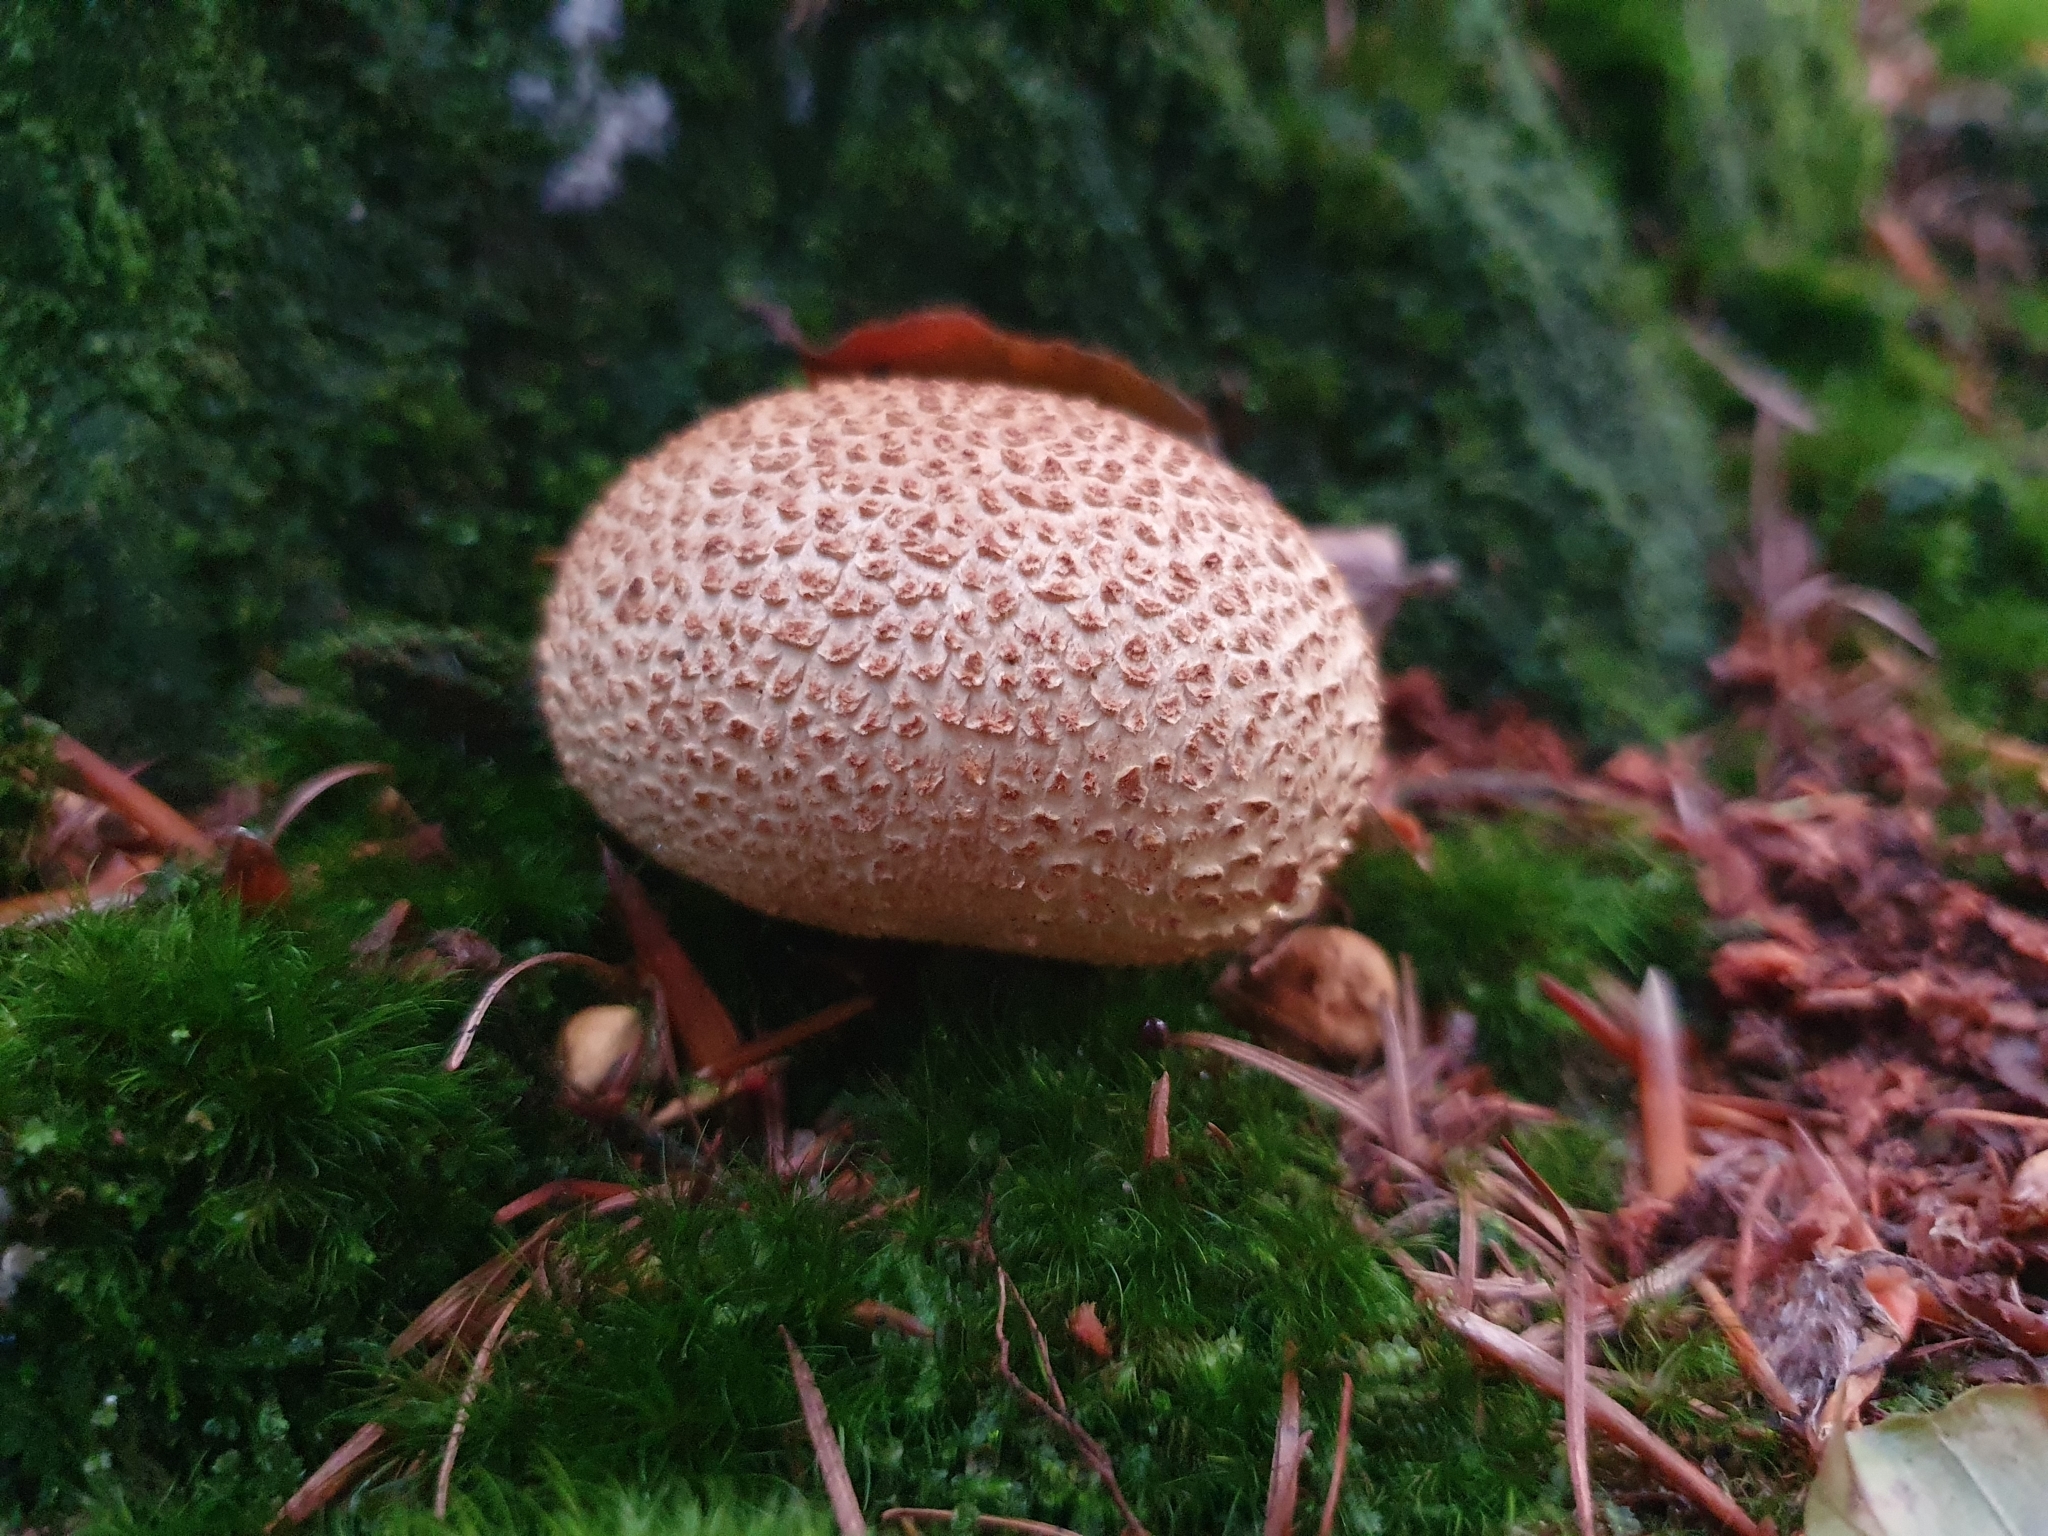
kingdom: Fungi
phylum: Basidiomycota
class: Agaricomycetes
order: Boletales
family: Sclerodermataceae
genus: Scleroderma
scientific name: Scleroderma citrinum
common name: Common earthball
